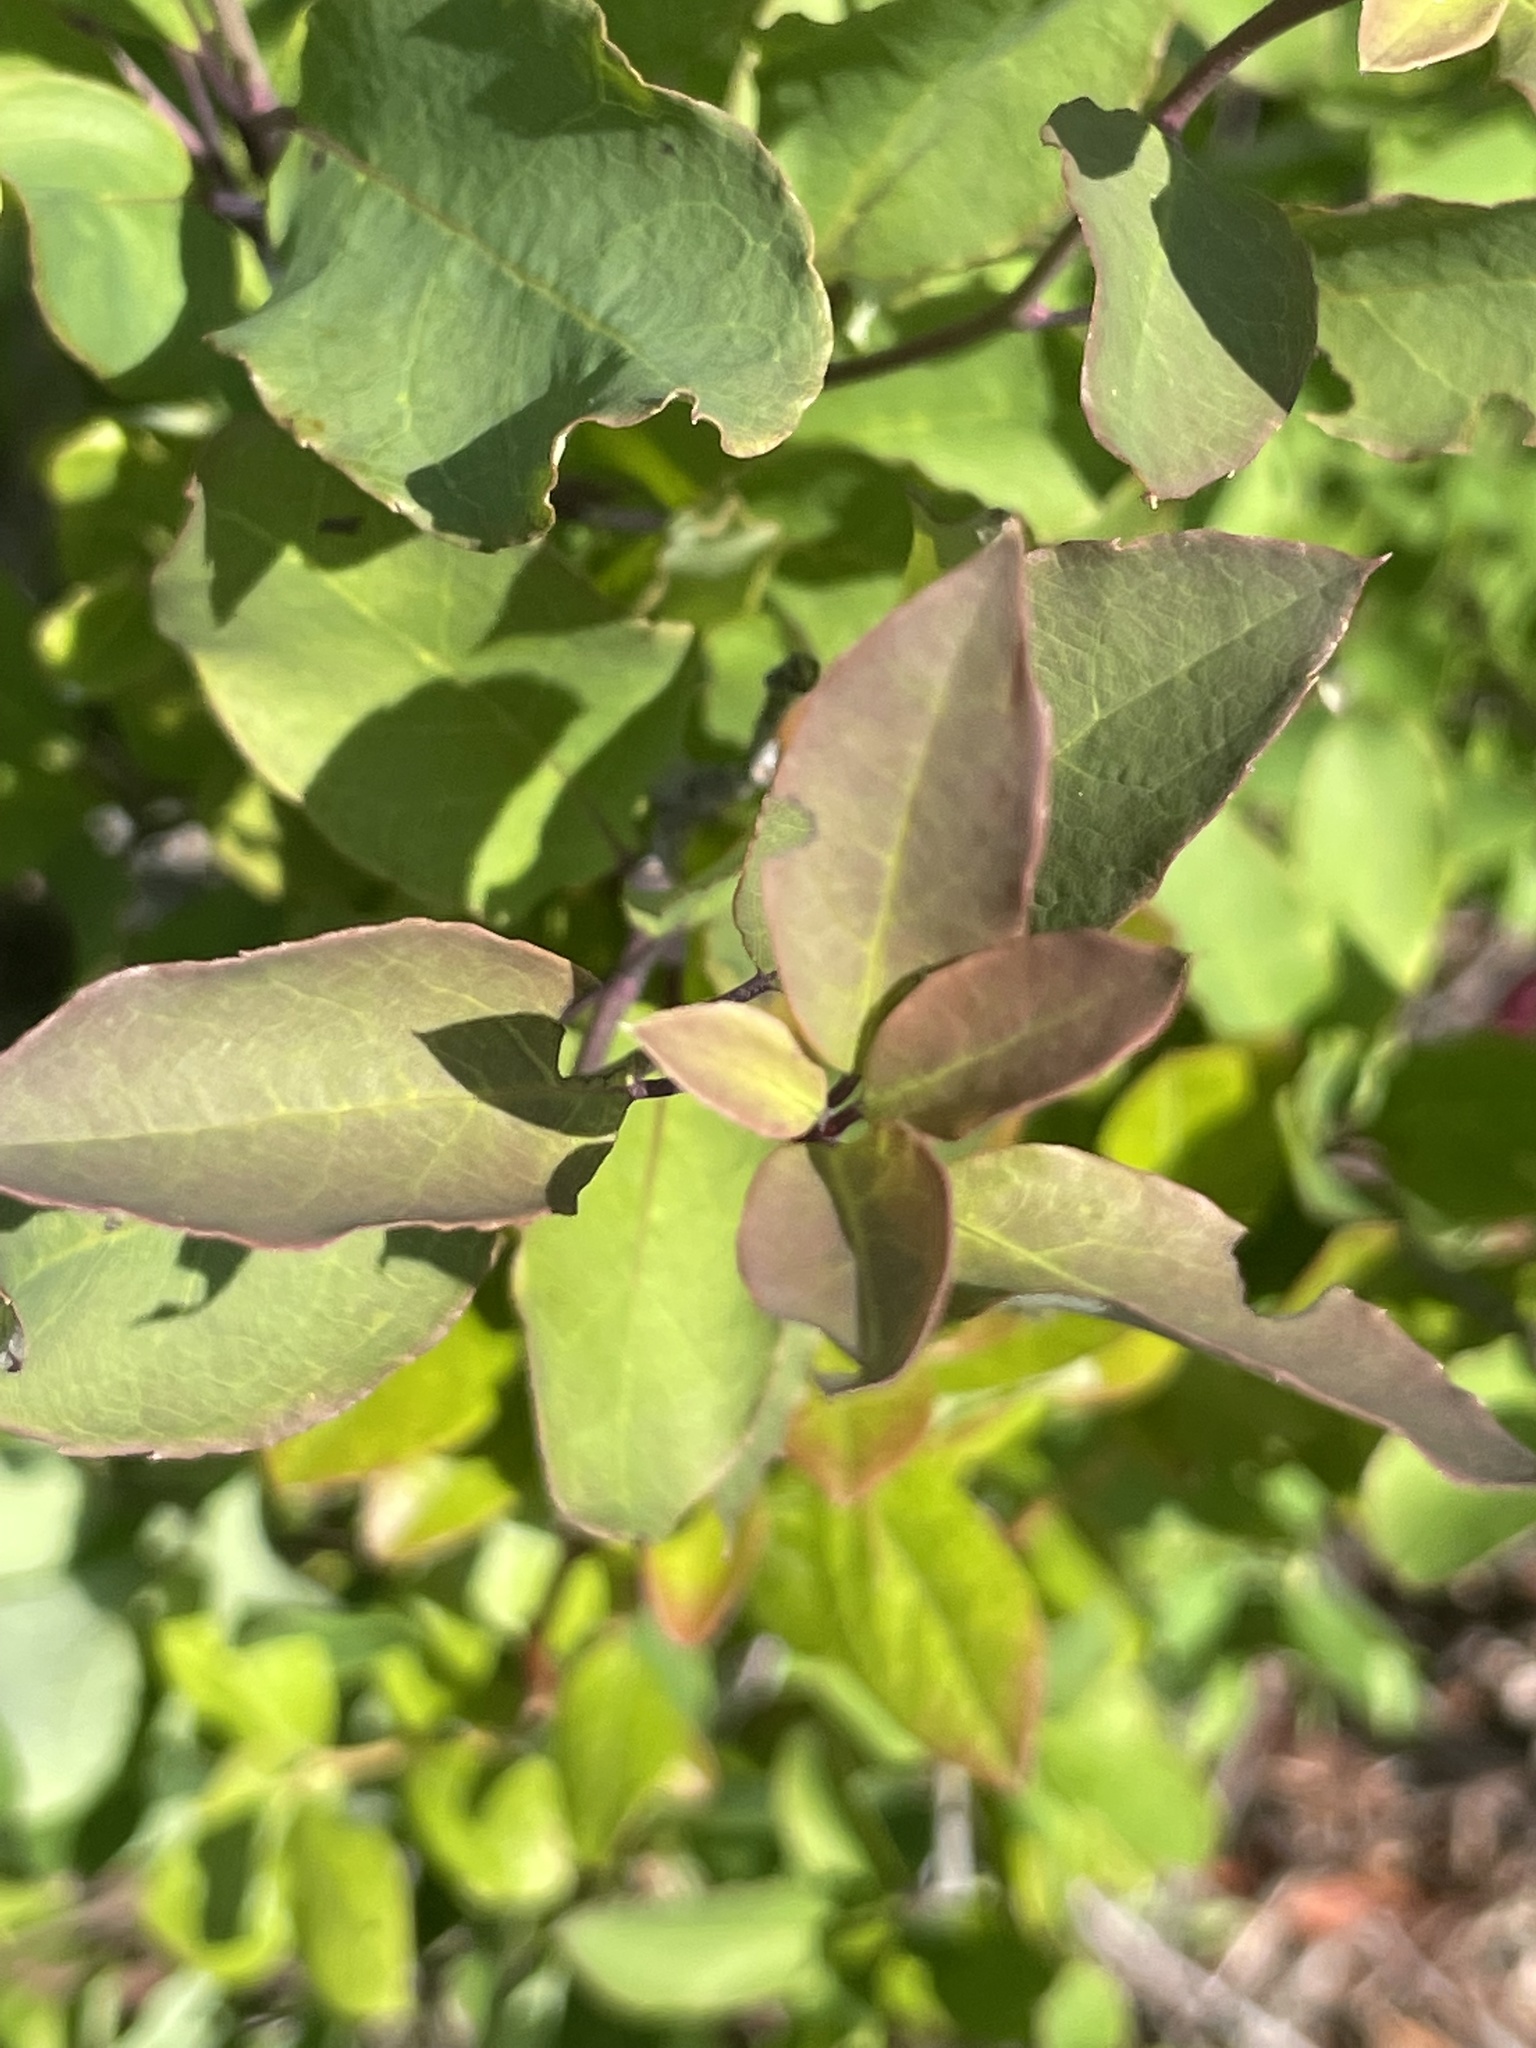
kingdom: Plantae
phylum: Tracheophyta
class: Magnoliopsida
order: Aquifoliales
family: Aquifoliaceae
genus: Ilex
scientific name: Ilex mucronata
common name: Catberry
